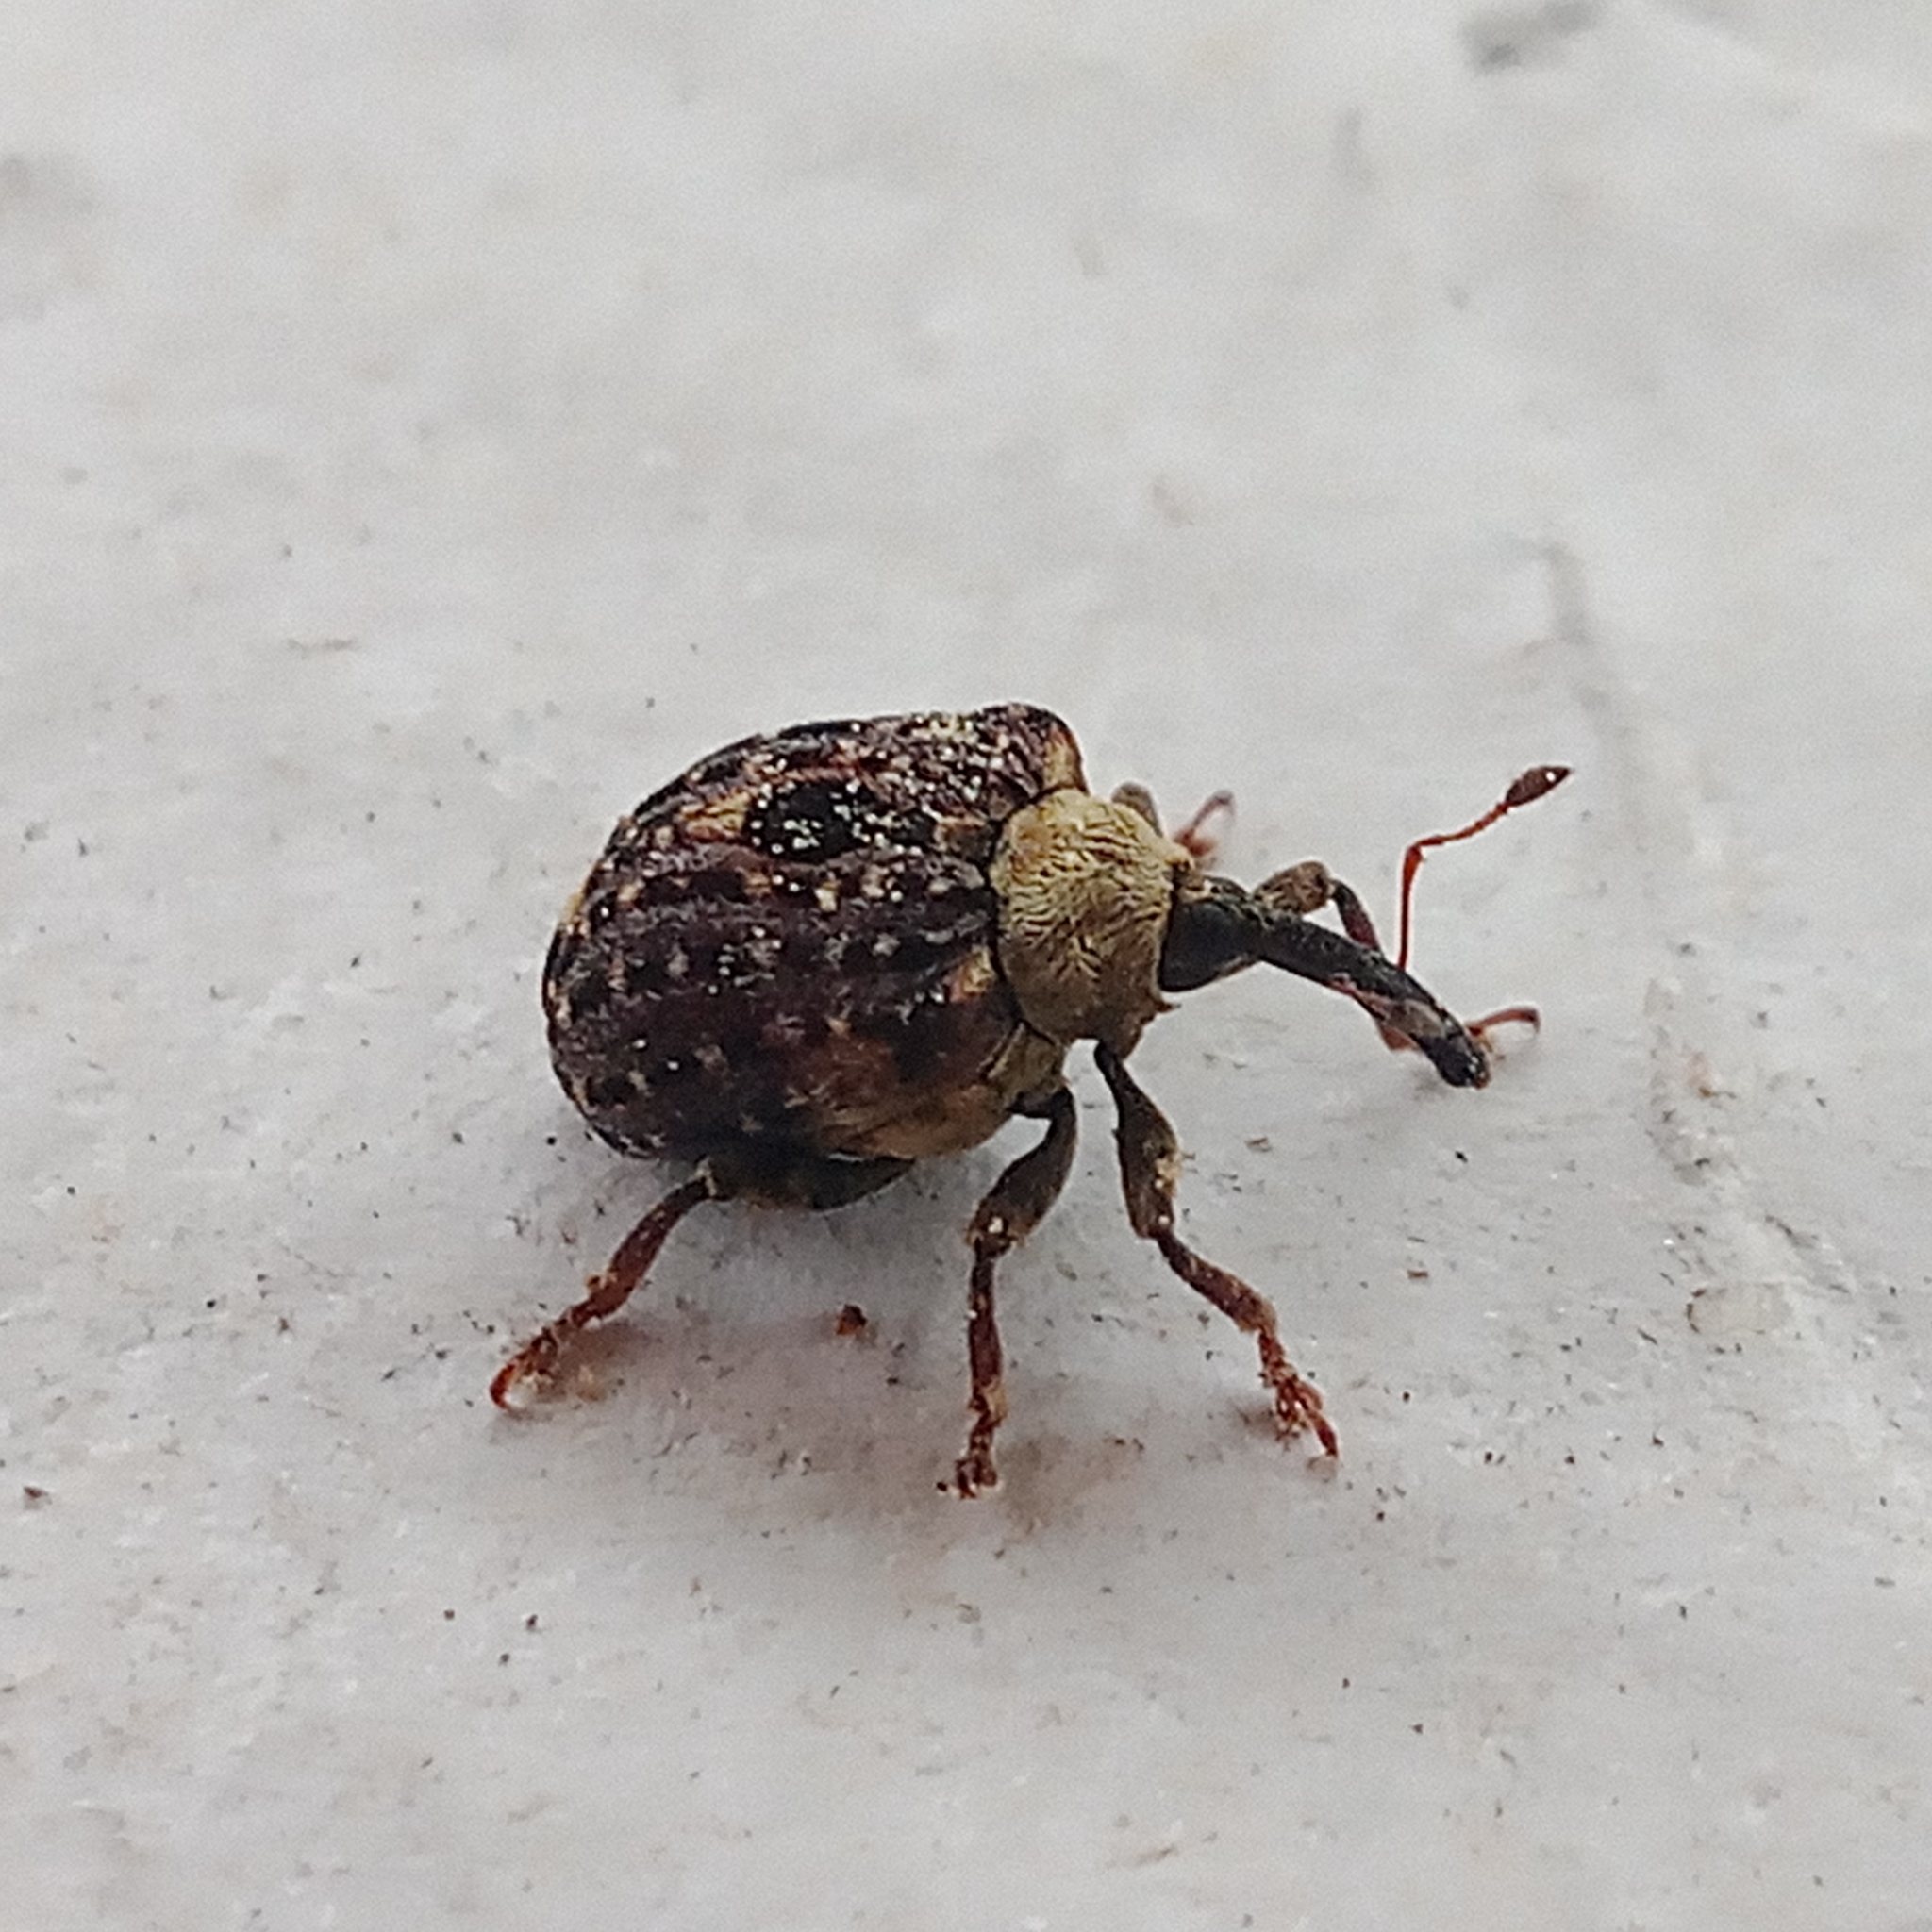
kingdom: Animalia
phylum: Arthropoda
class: Insecta
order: Coleoptera
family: Curculionidae
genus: Cionus
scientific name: Cionus scrophulariae
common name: Common figwort weevil
